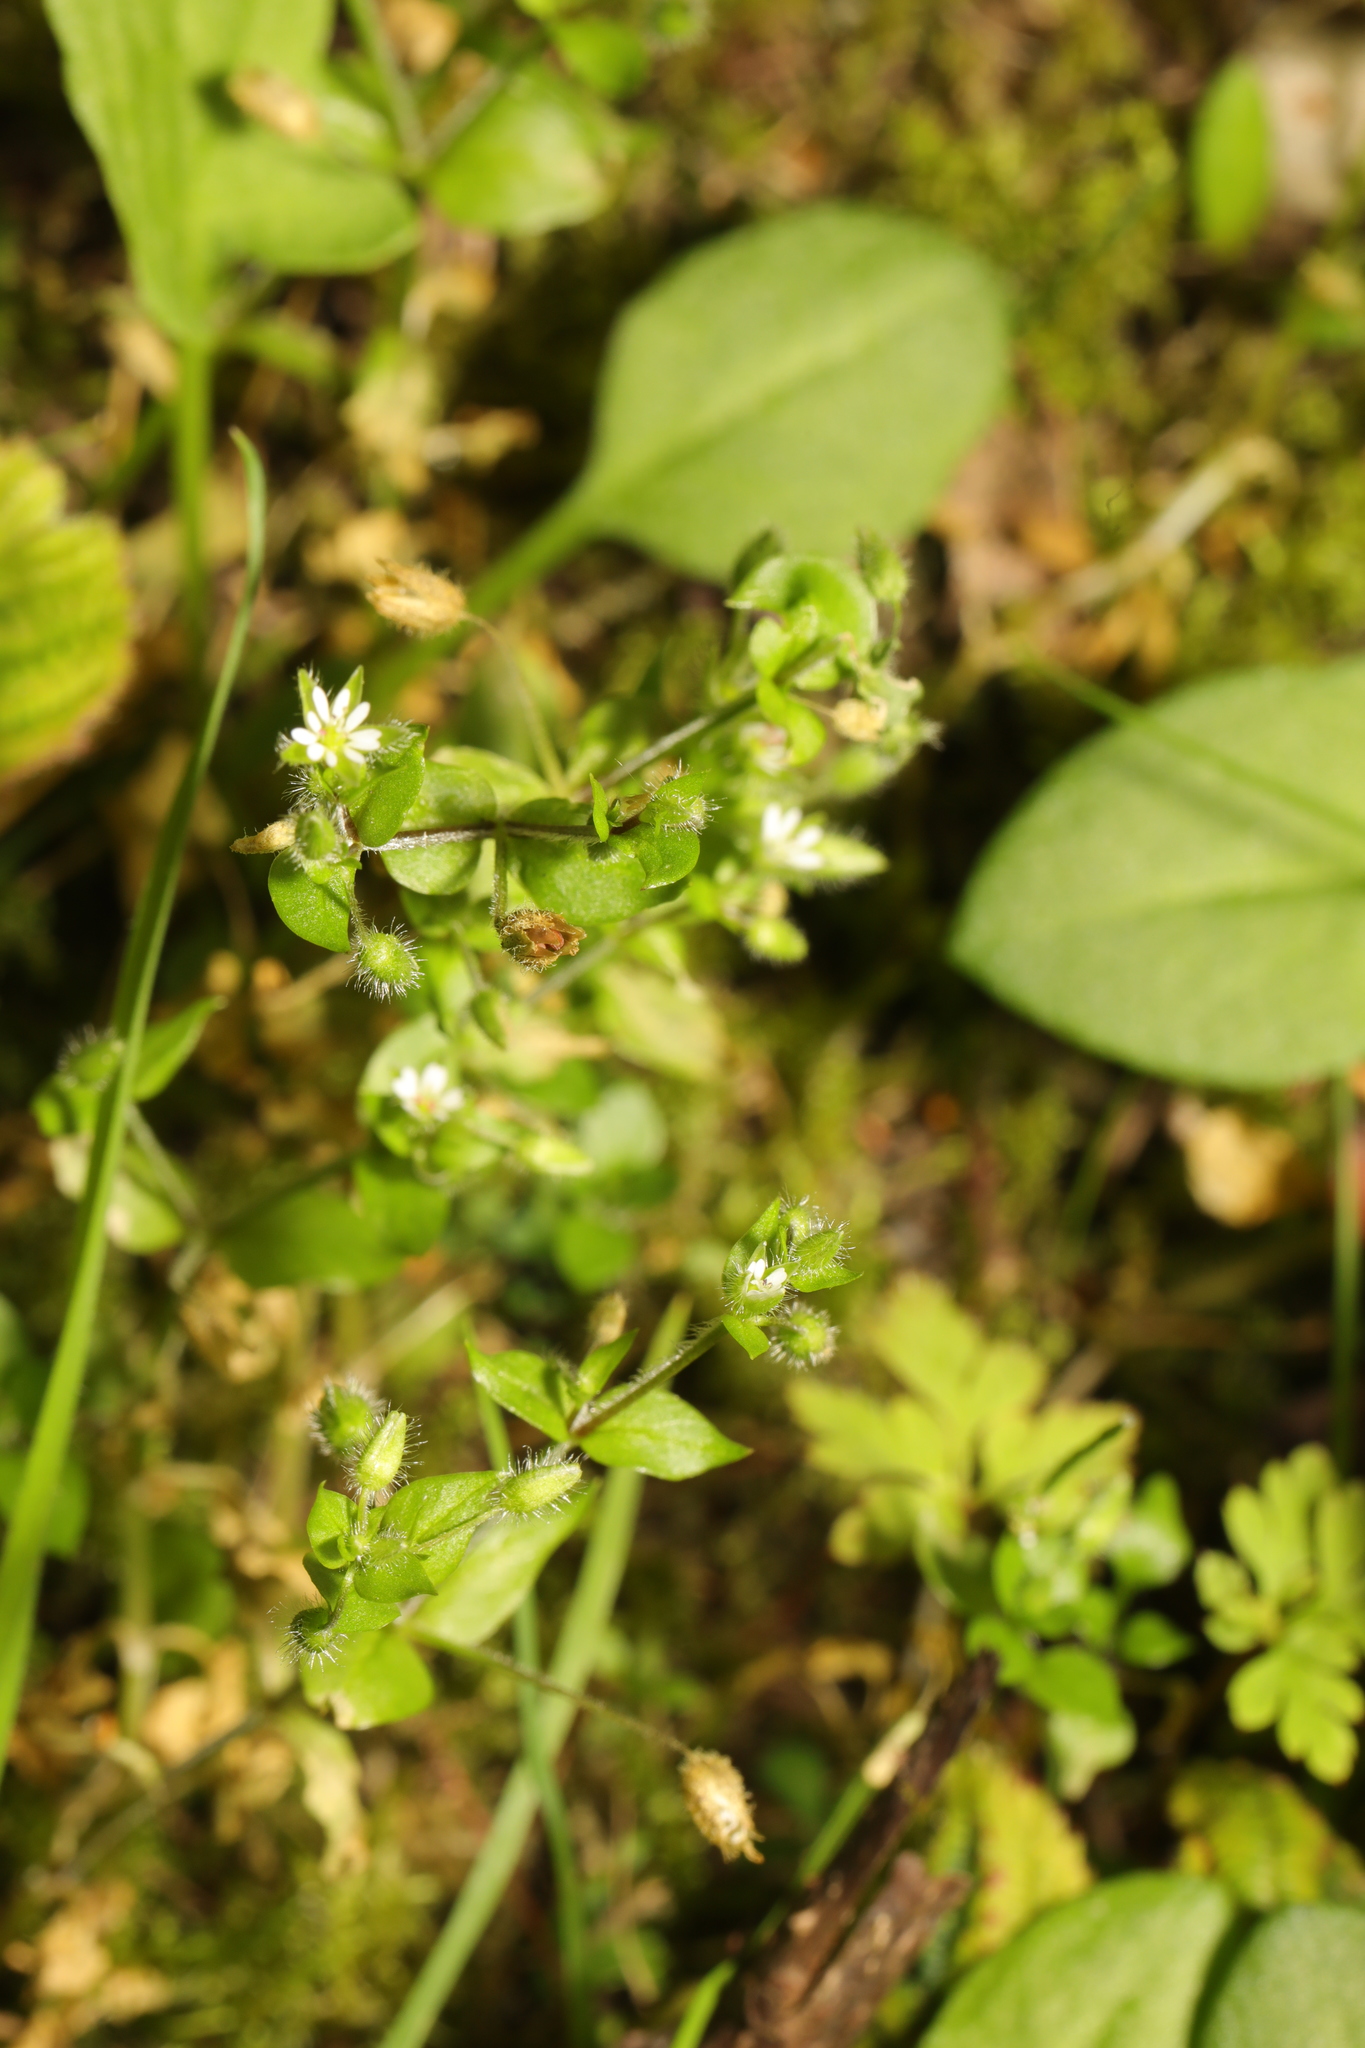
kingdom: Plantae
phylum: Tracheophyta
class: Magnoliopsida
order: Caryophyllales
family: Caryophyllaceae
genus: Stellaria
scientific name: Stellaria media
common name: Common chickweed
